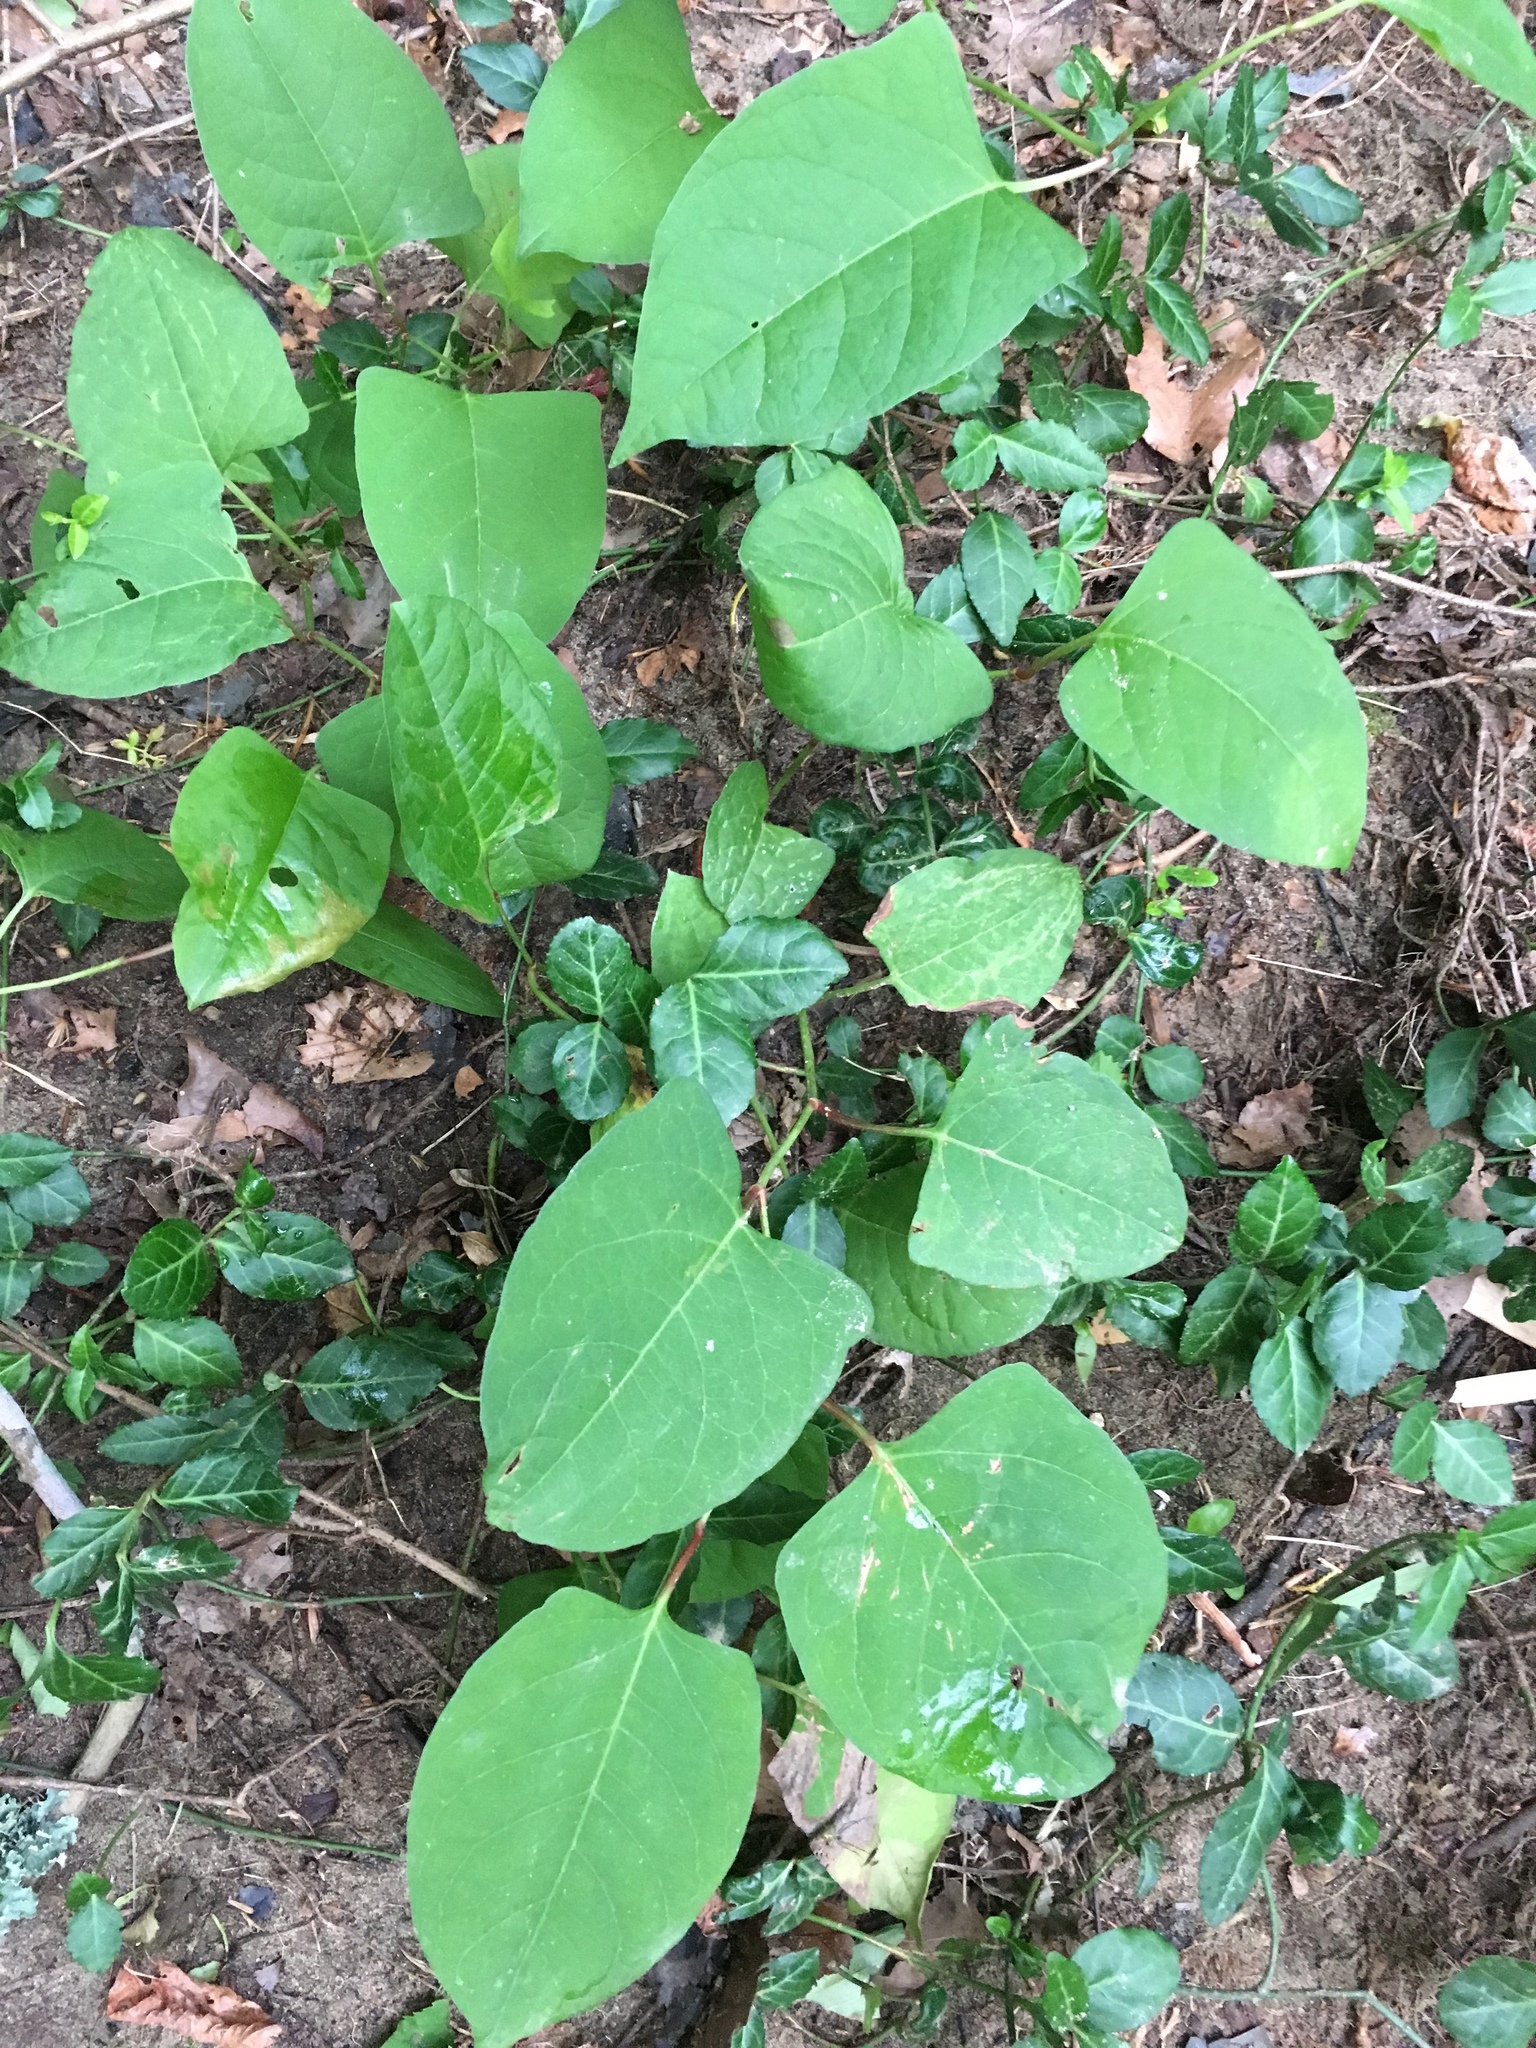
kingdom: Plantae
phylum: Tracheophyta
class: Magnoliopsida
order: Caryophyllales
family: Polygonaceae
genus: Reynoutria
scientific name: Reynoutria japonica
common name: Japanese knotweed
